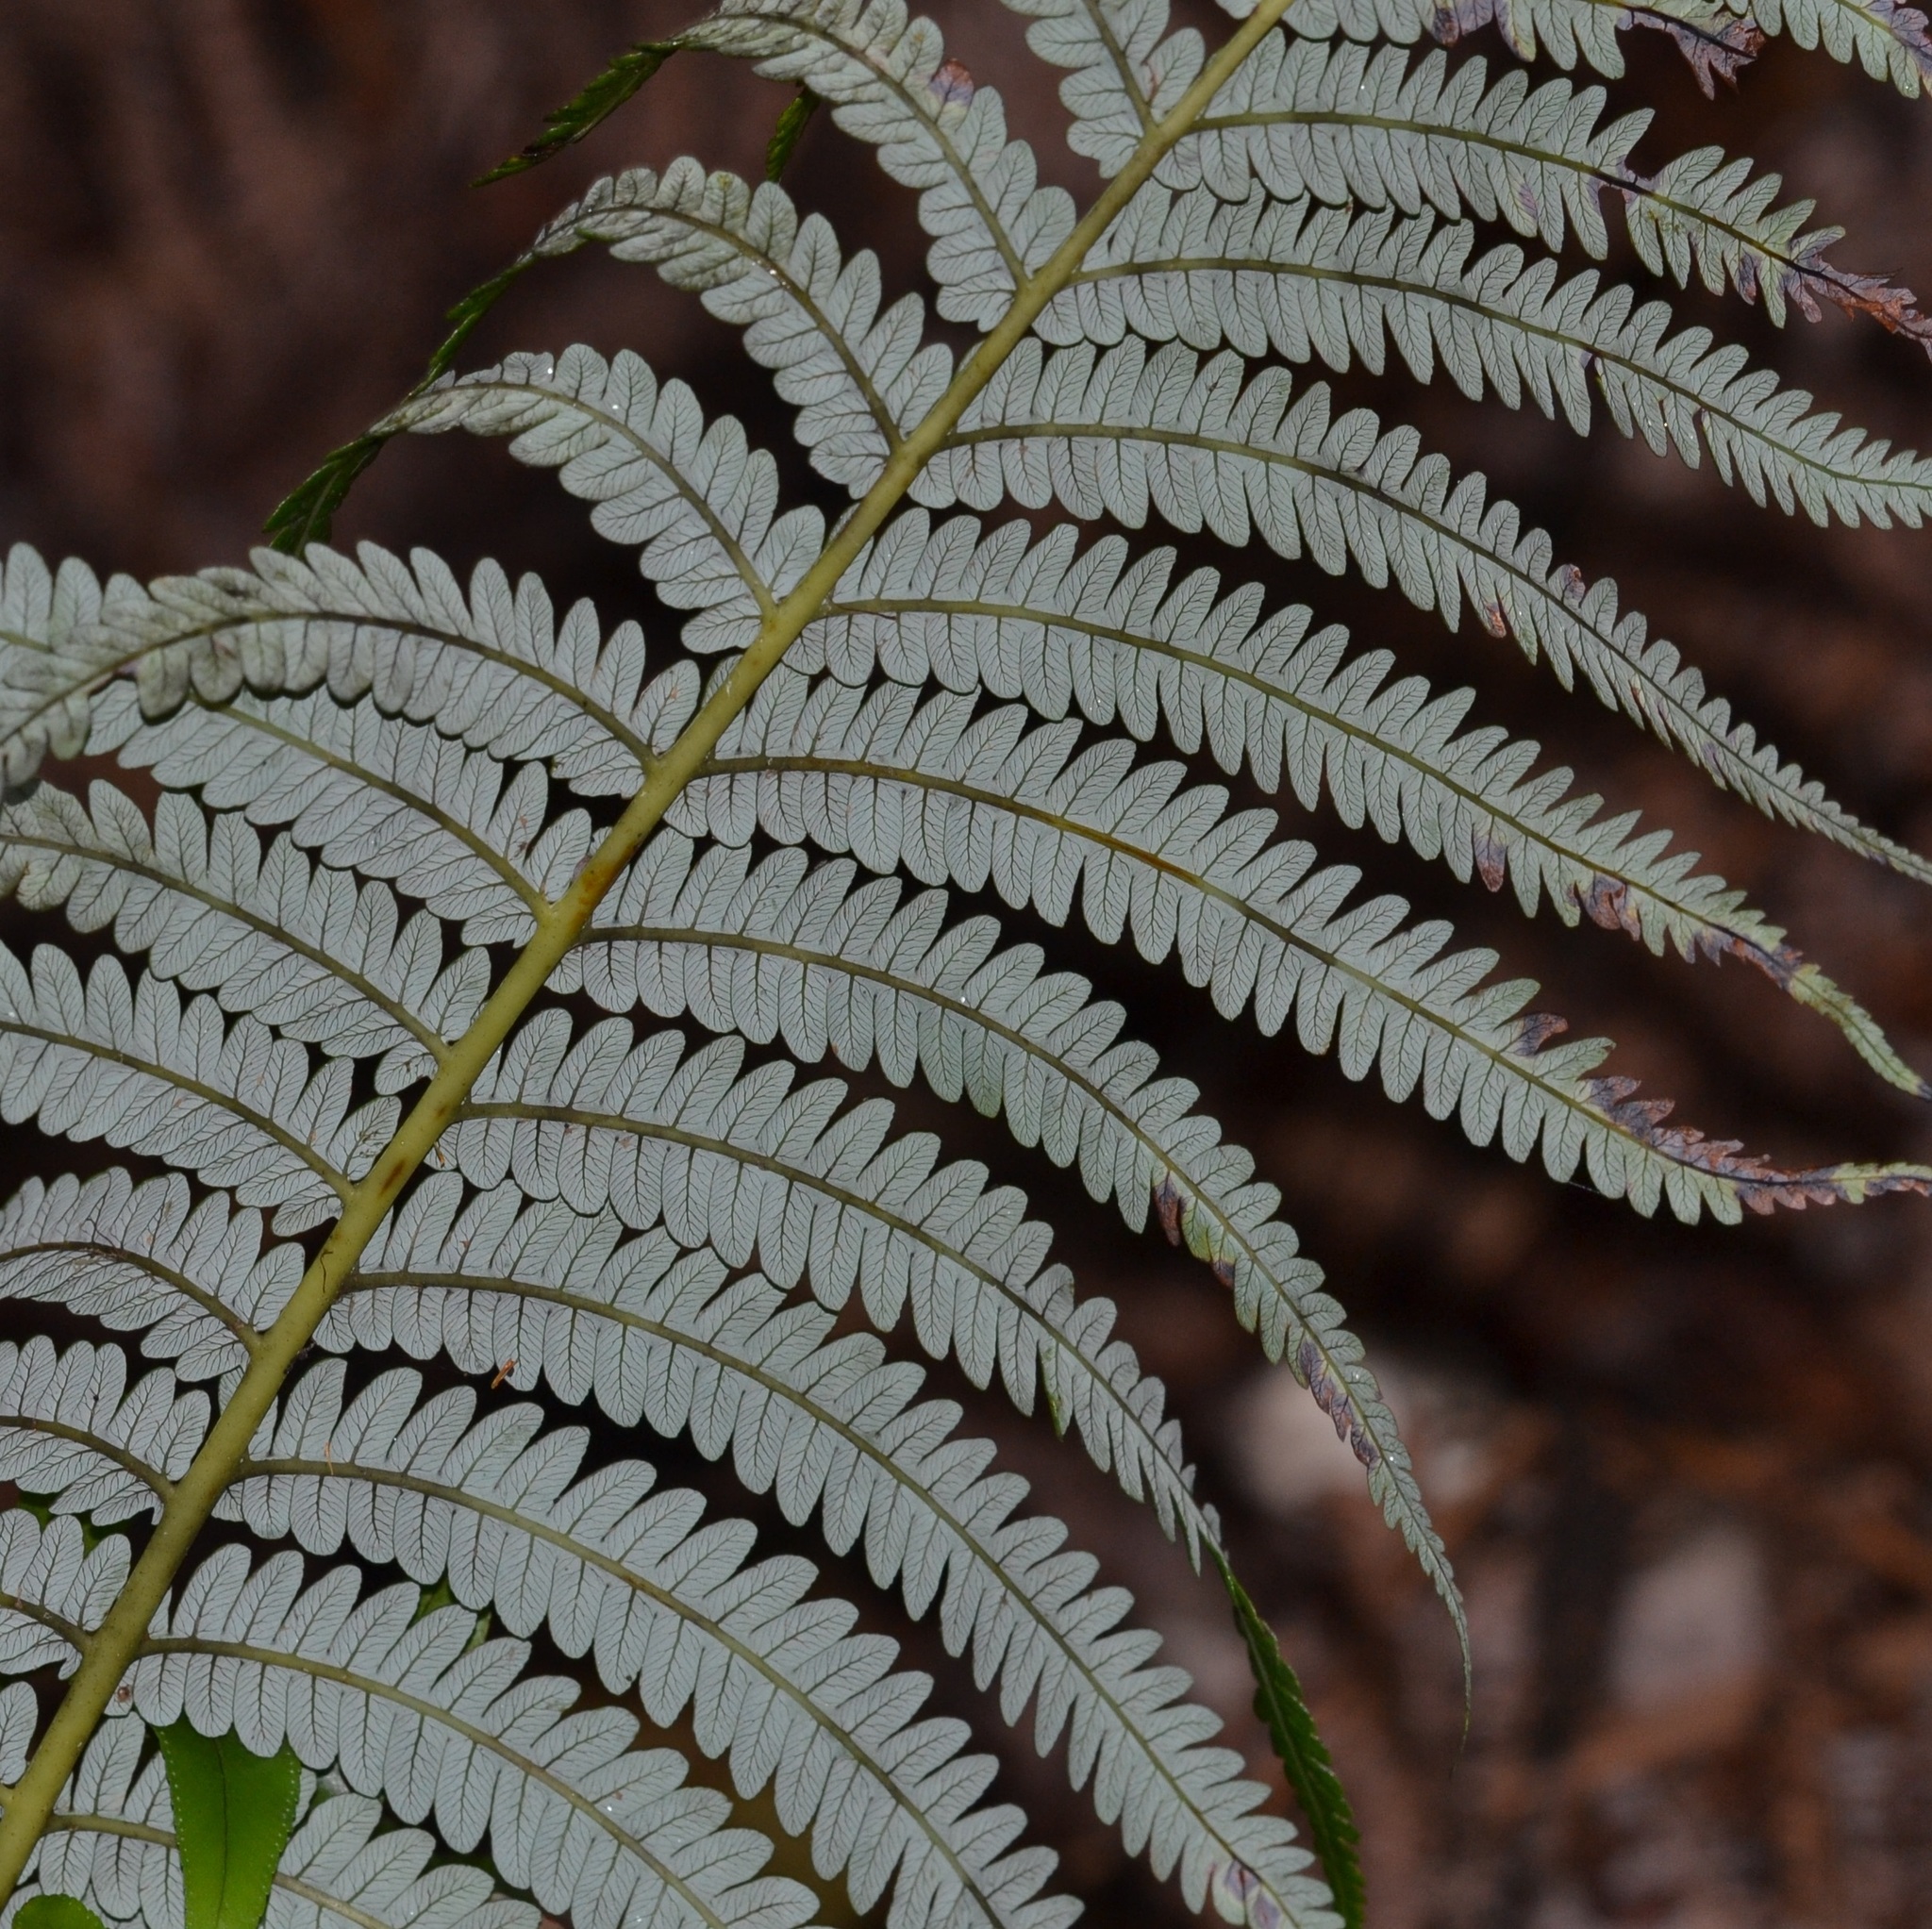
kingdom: Plantae
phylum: Tracheophyta
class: Polypodiopsida
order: Cyatheales
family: Cibotiaceae
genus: Cibotium
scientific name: Cibotium glaucum
